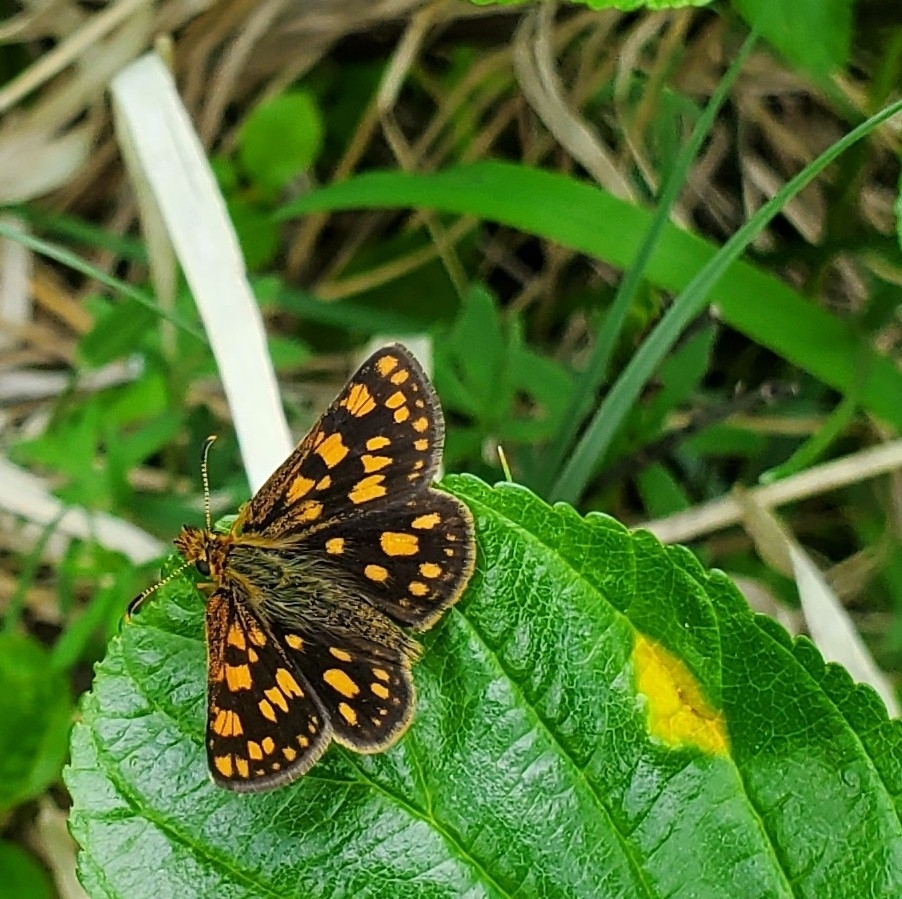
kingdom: Animalia
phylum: Arthropoda
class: Insecta
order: Lepidoptera
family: Hesperiidae
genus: Carterocephalus
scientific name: Carterocephalus skada
